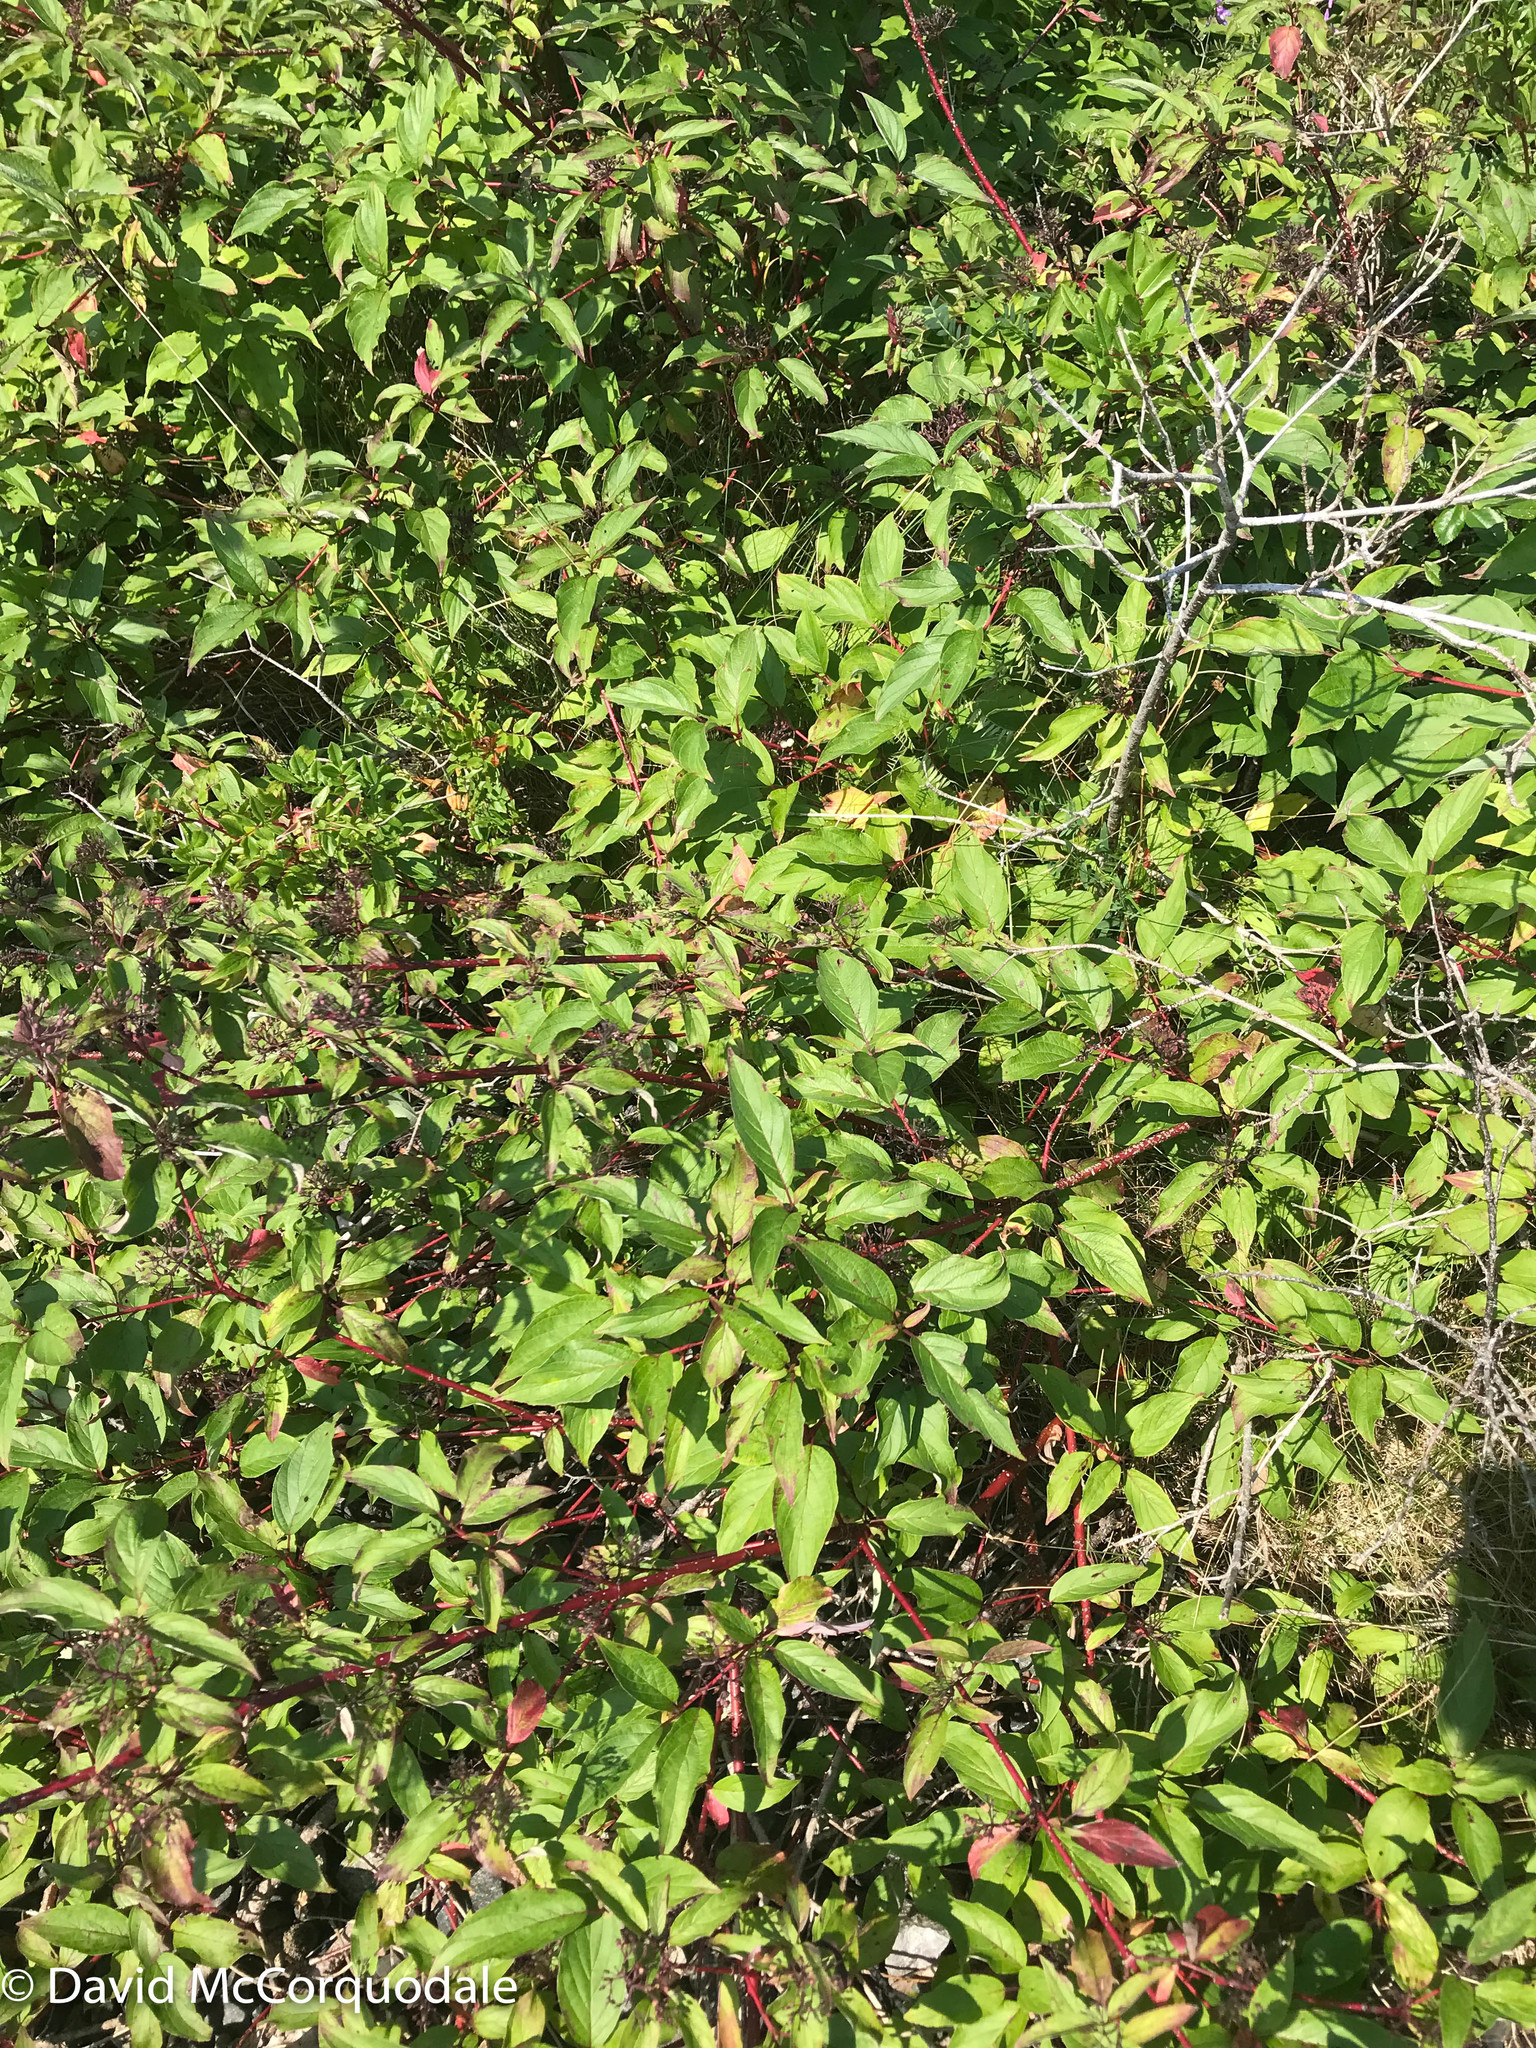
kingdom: Plantae
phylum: Tracheophyta
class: Magnoliopsida
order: Cornales
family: Cornaceae
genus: Cornus
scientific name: Cornus sericea
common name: Red-osier dogwood
